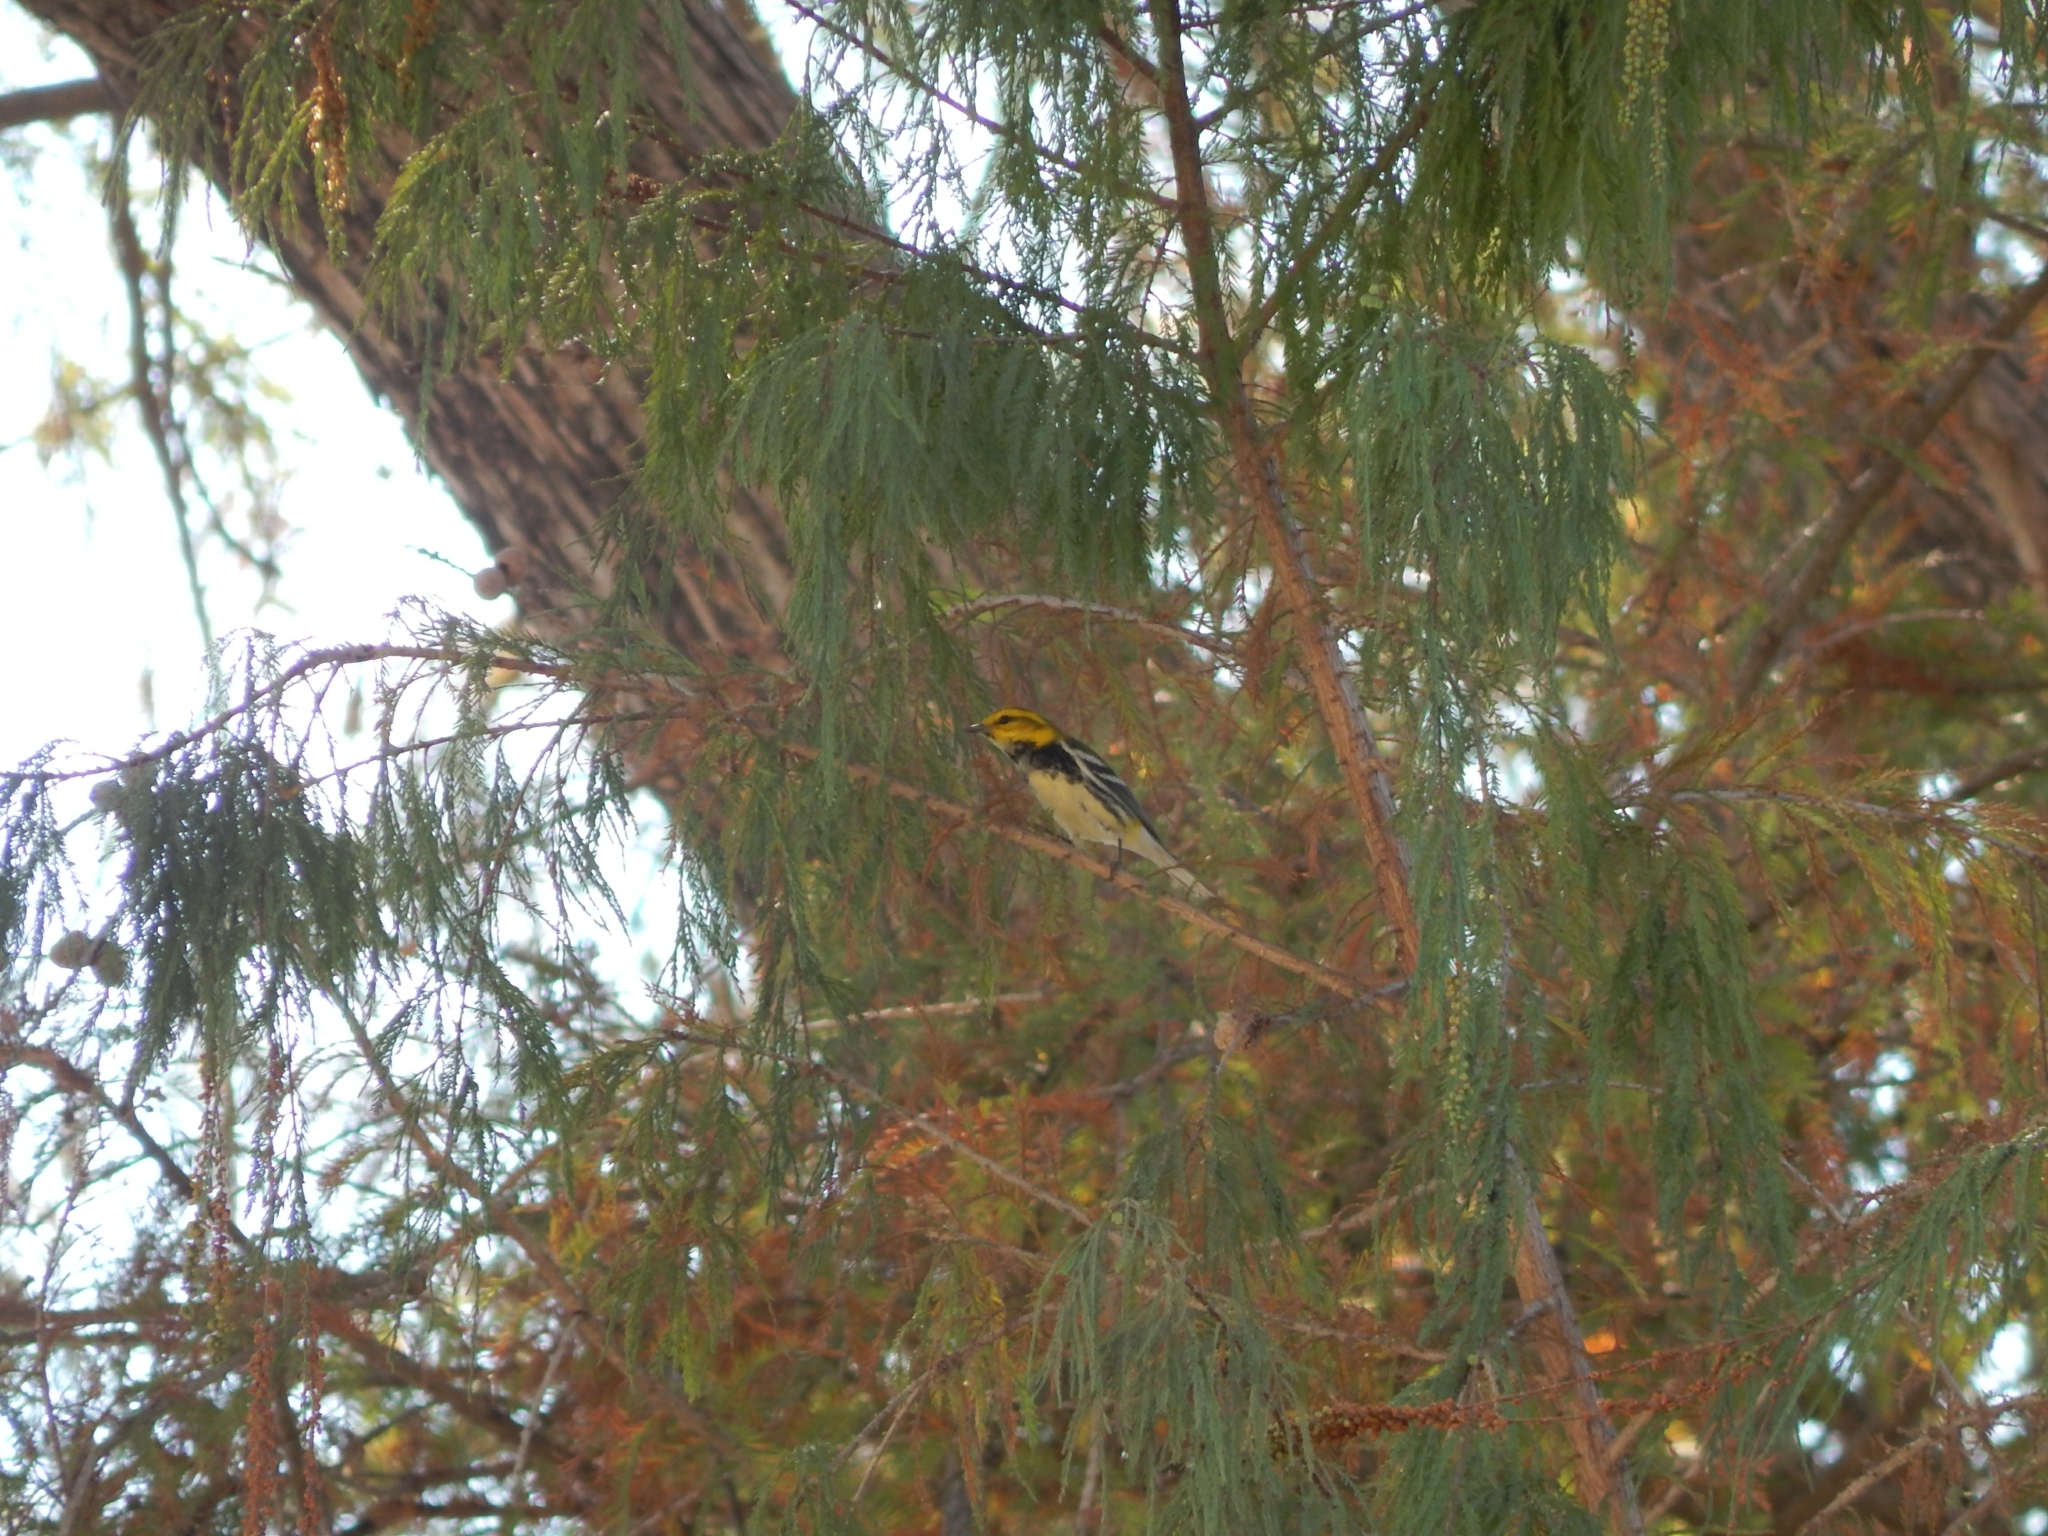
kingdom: Animalia
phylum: Chordata
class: Aves
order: Passeriformes
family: Parulidae
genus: Setophaga
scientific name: Setophaga virens
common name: Black-throated green warbler
